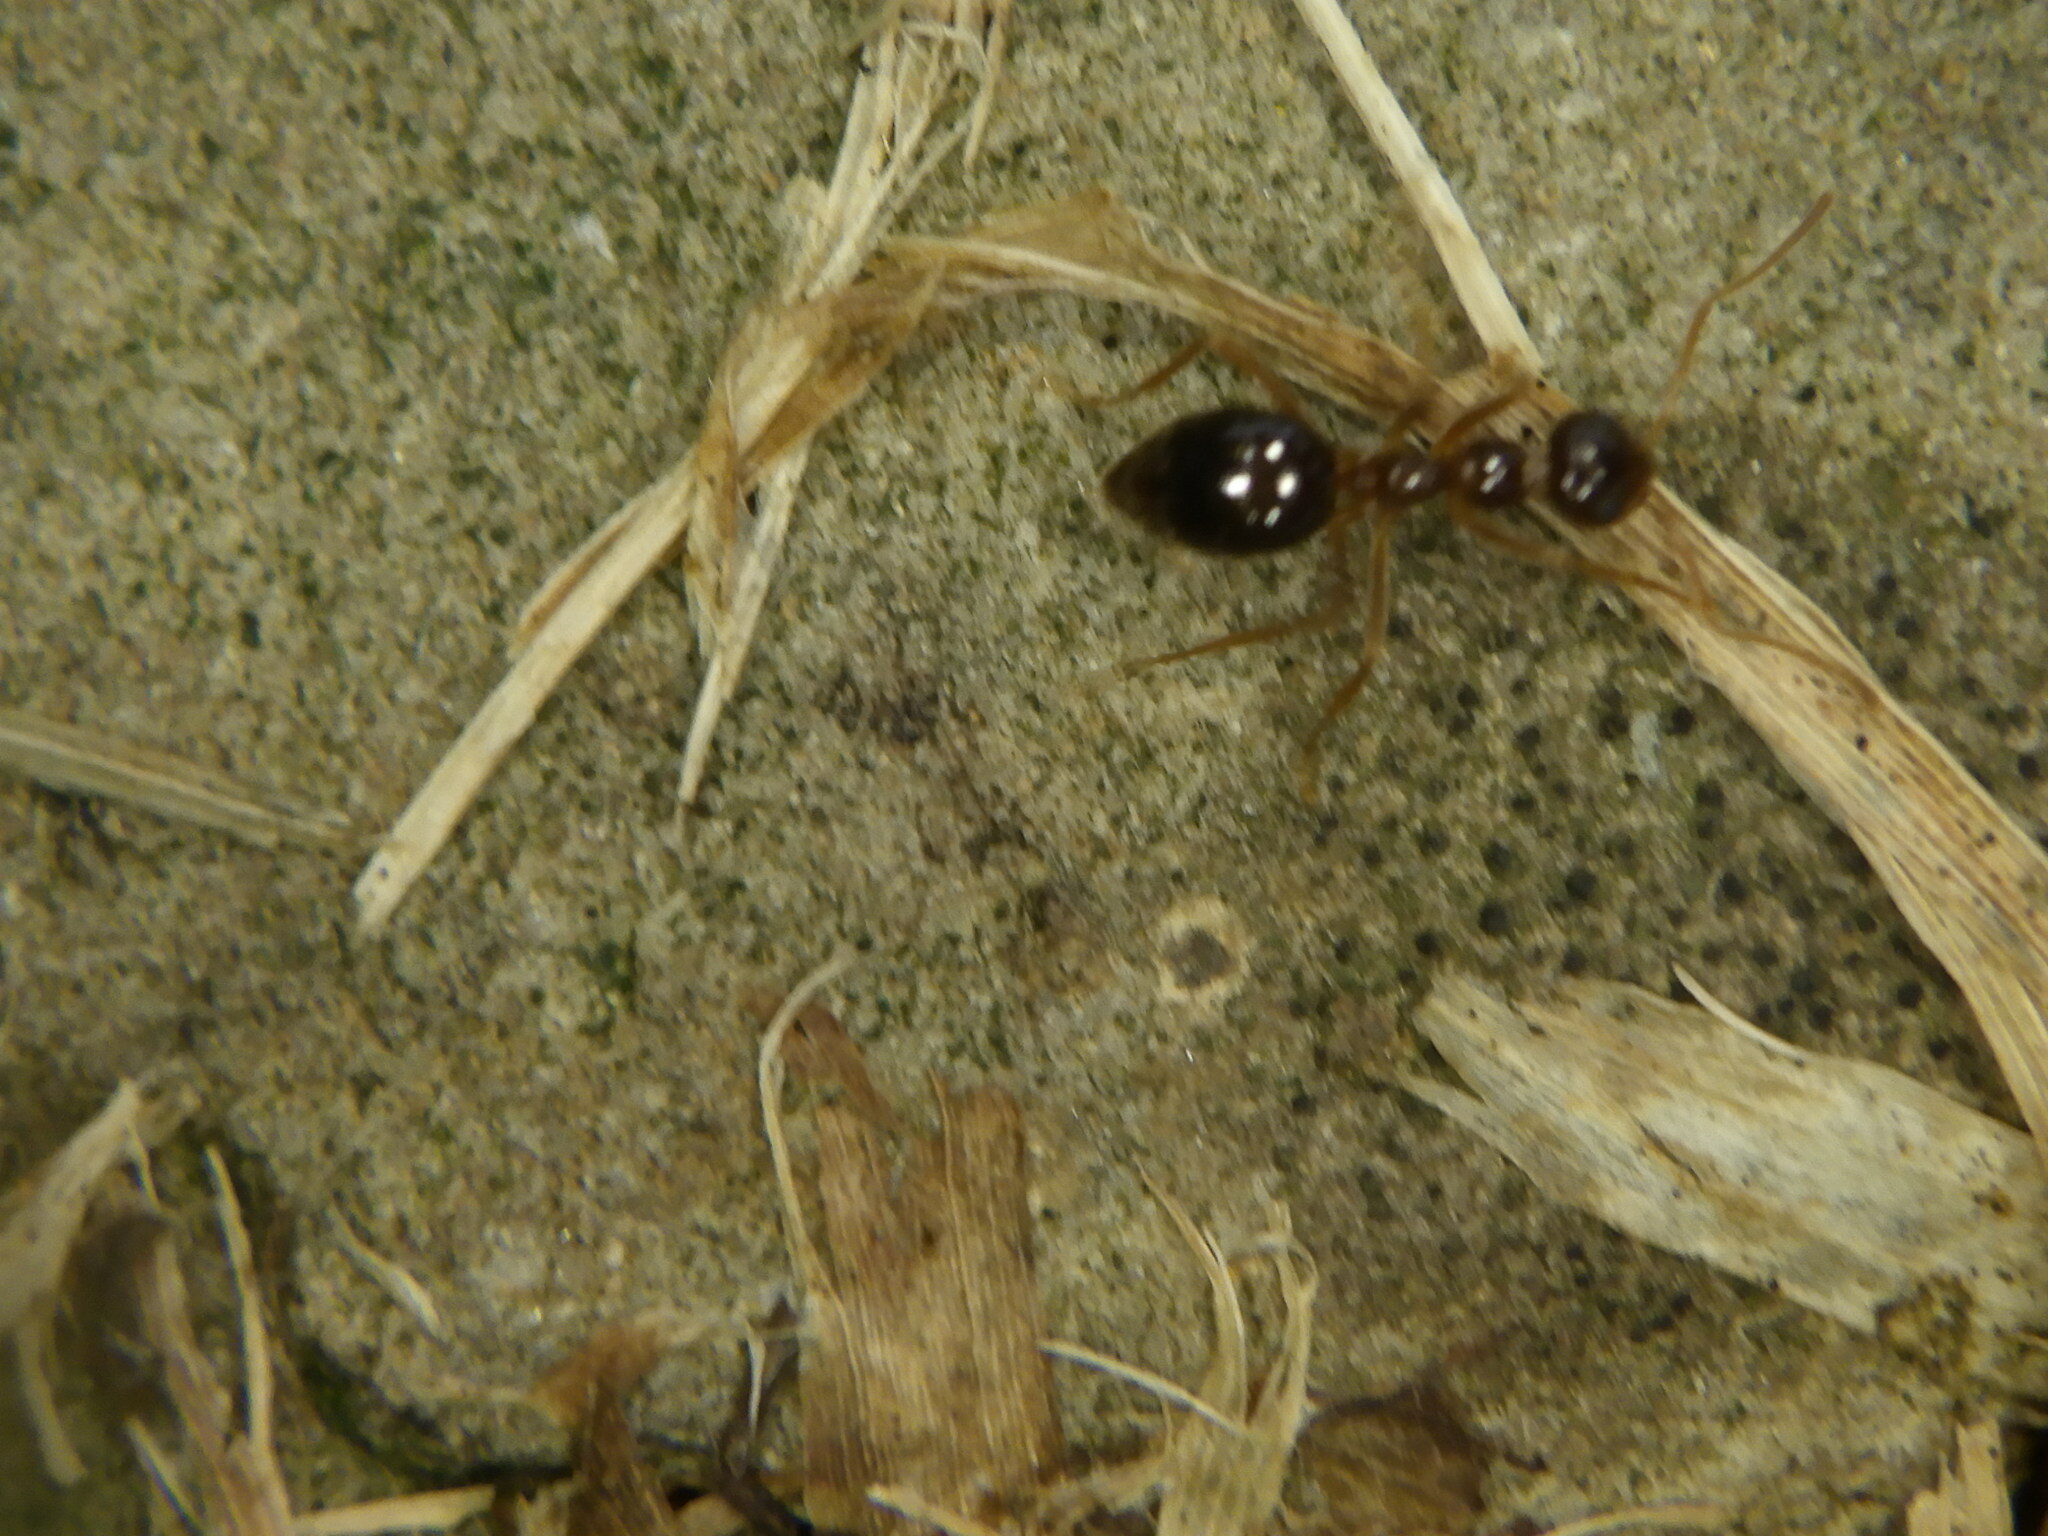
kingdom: Animalia
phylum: Arthropoda
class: Insecta
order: Hymenoptera
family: Formicidae
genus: Prenolepis
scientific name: Prenolepis imparis
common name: Small honey ant
